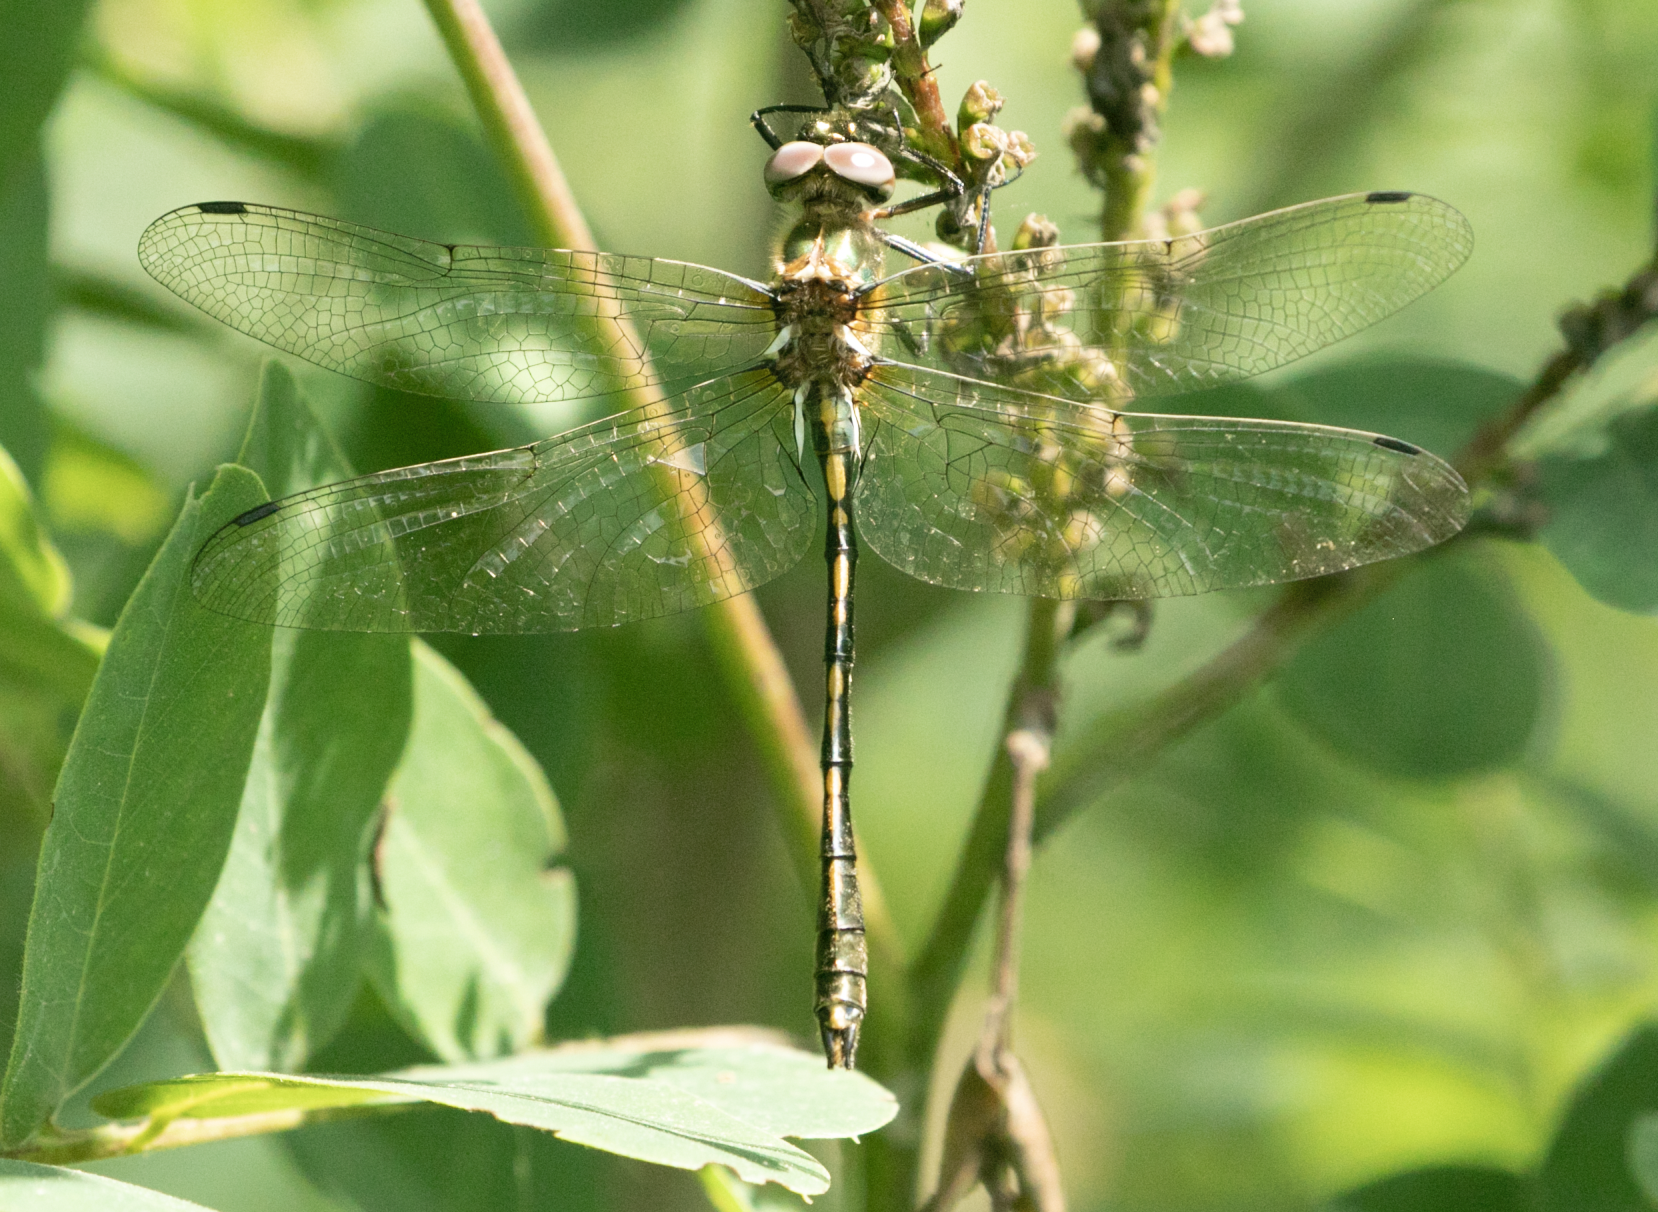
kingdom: Animalia
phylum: Arthropoda
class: Insecta
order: Odonata
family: Corduliidae
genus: Oxygastra
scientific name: Oxygastra curtisii
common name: Orange-spotted emerald
